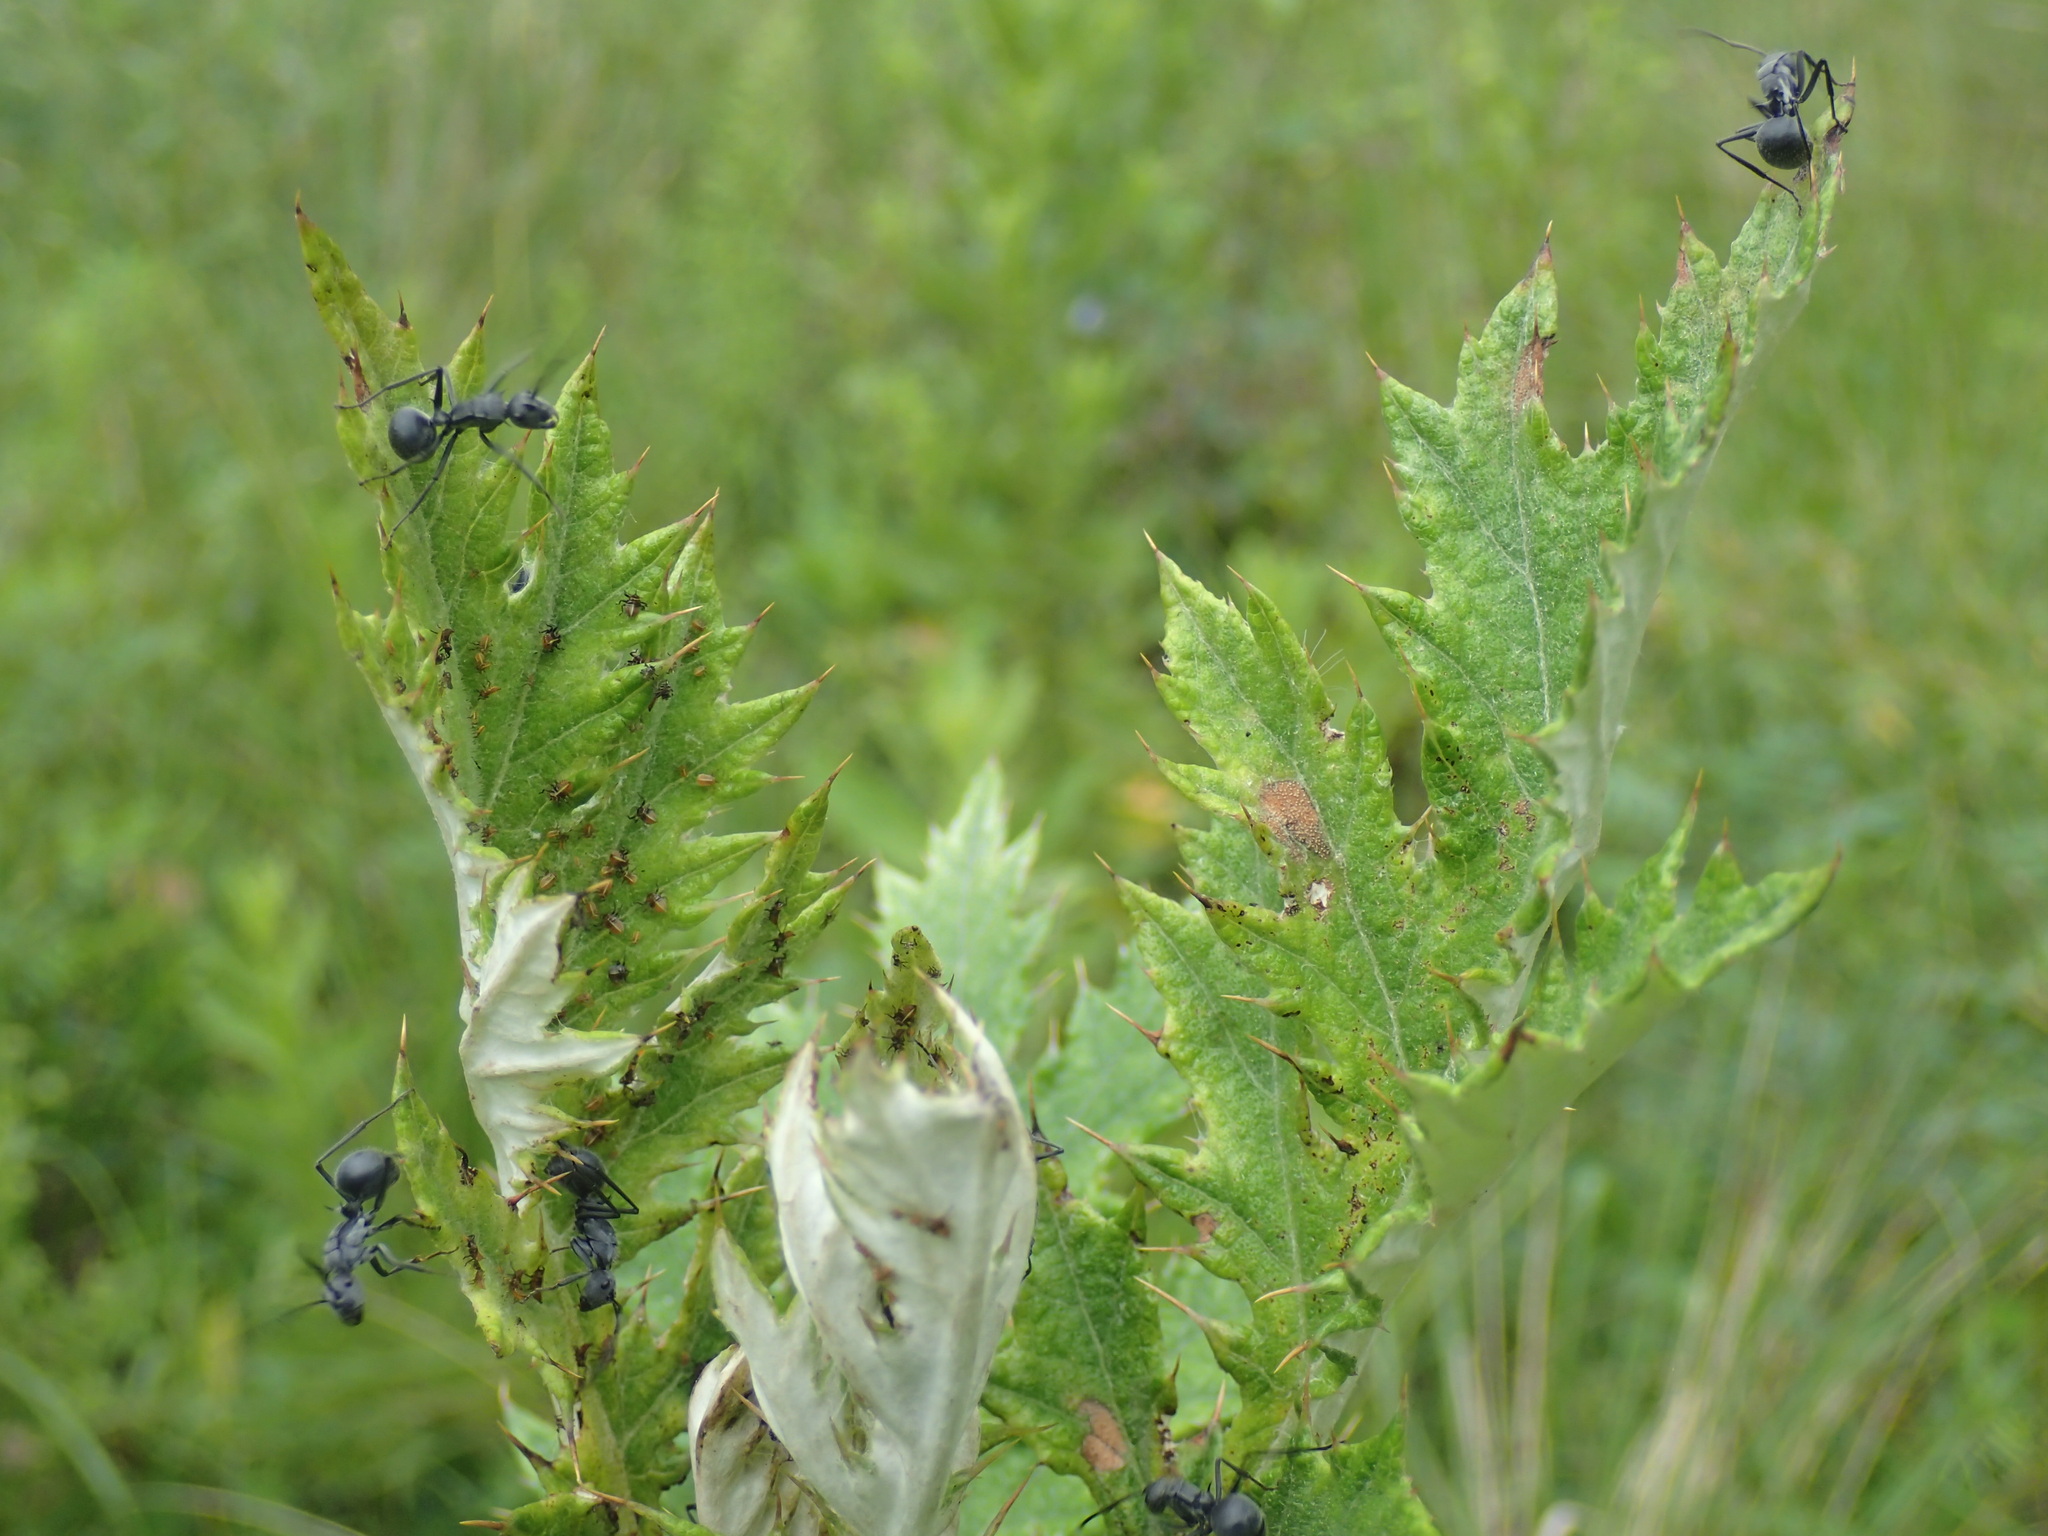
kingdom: Animalia
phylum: Arthropoda
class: Insecta
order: Hymenoptera
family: Formicidae
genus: Polyrhachis
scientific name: Polyrhachis schistacea
